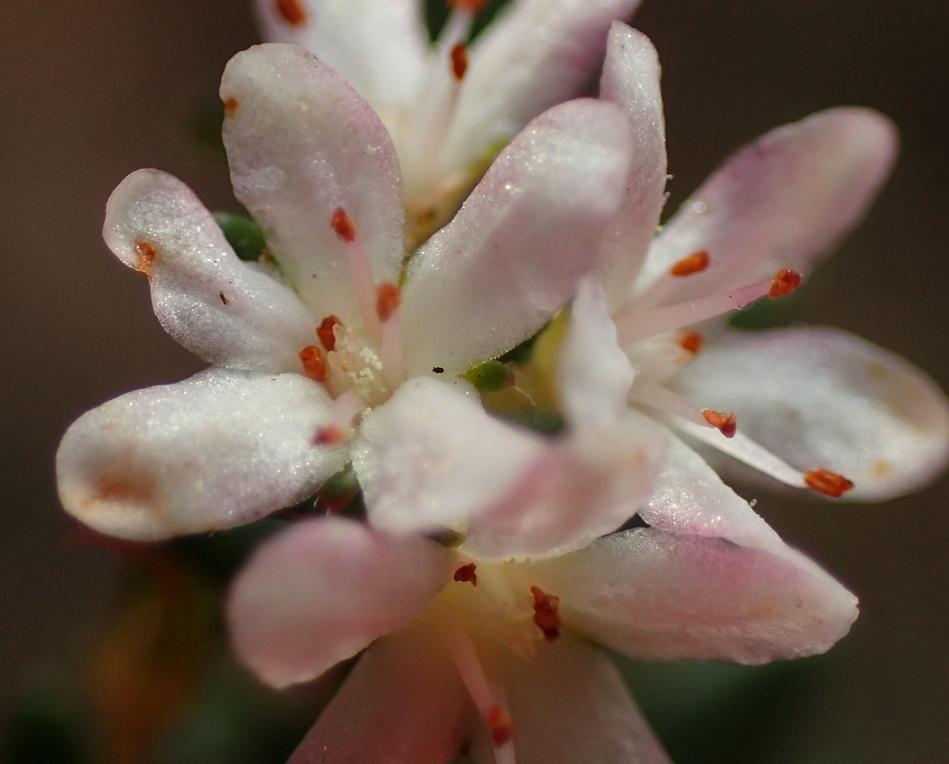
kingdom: Plantae
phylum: Tracheophyta
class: Magnoliopsida
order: Sapindales
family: Rutaceae
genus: Agathosma
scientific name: Agathosma planifolia
